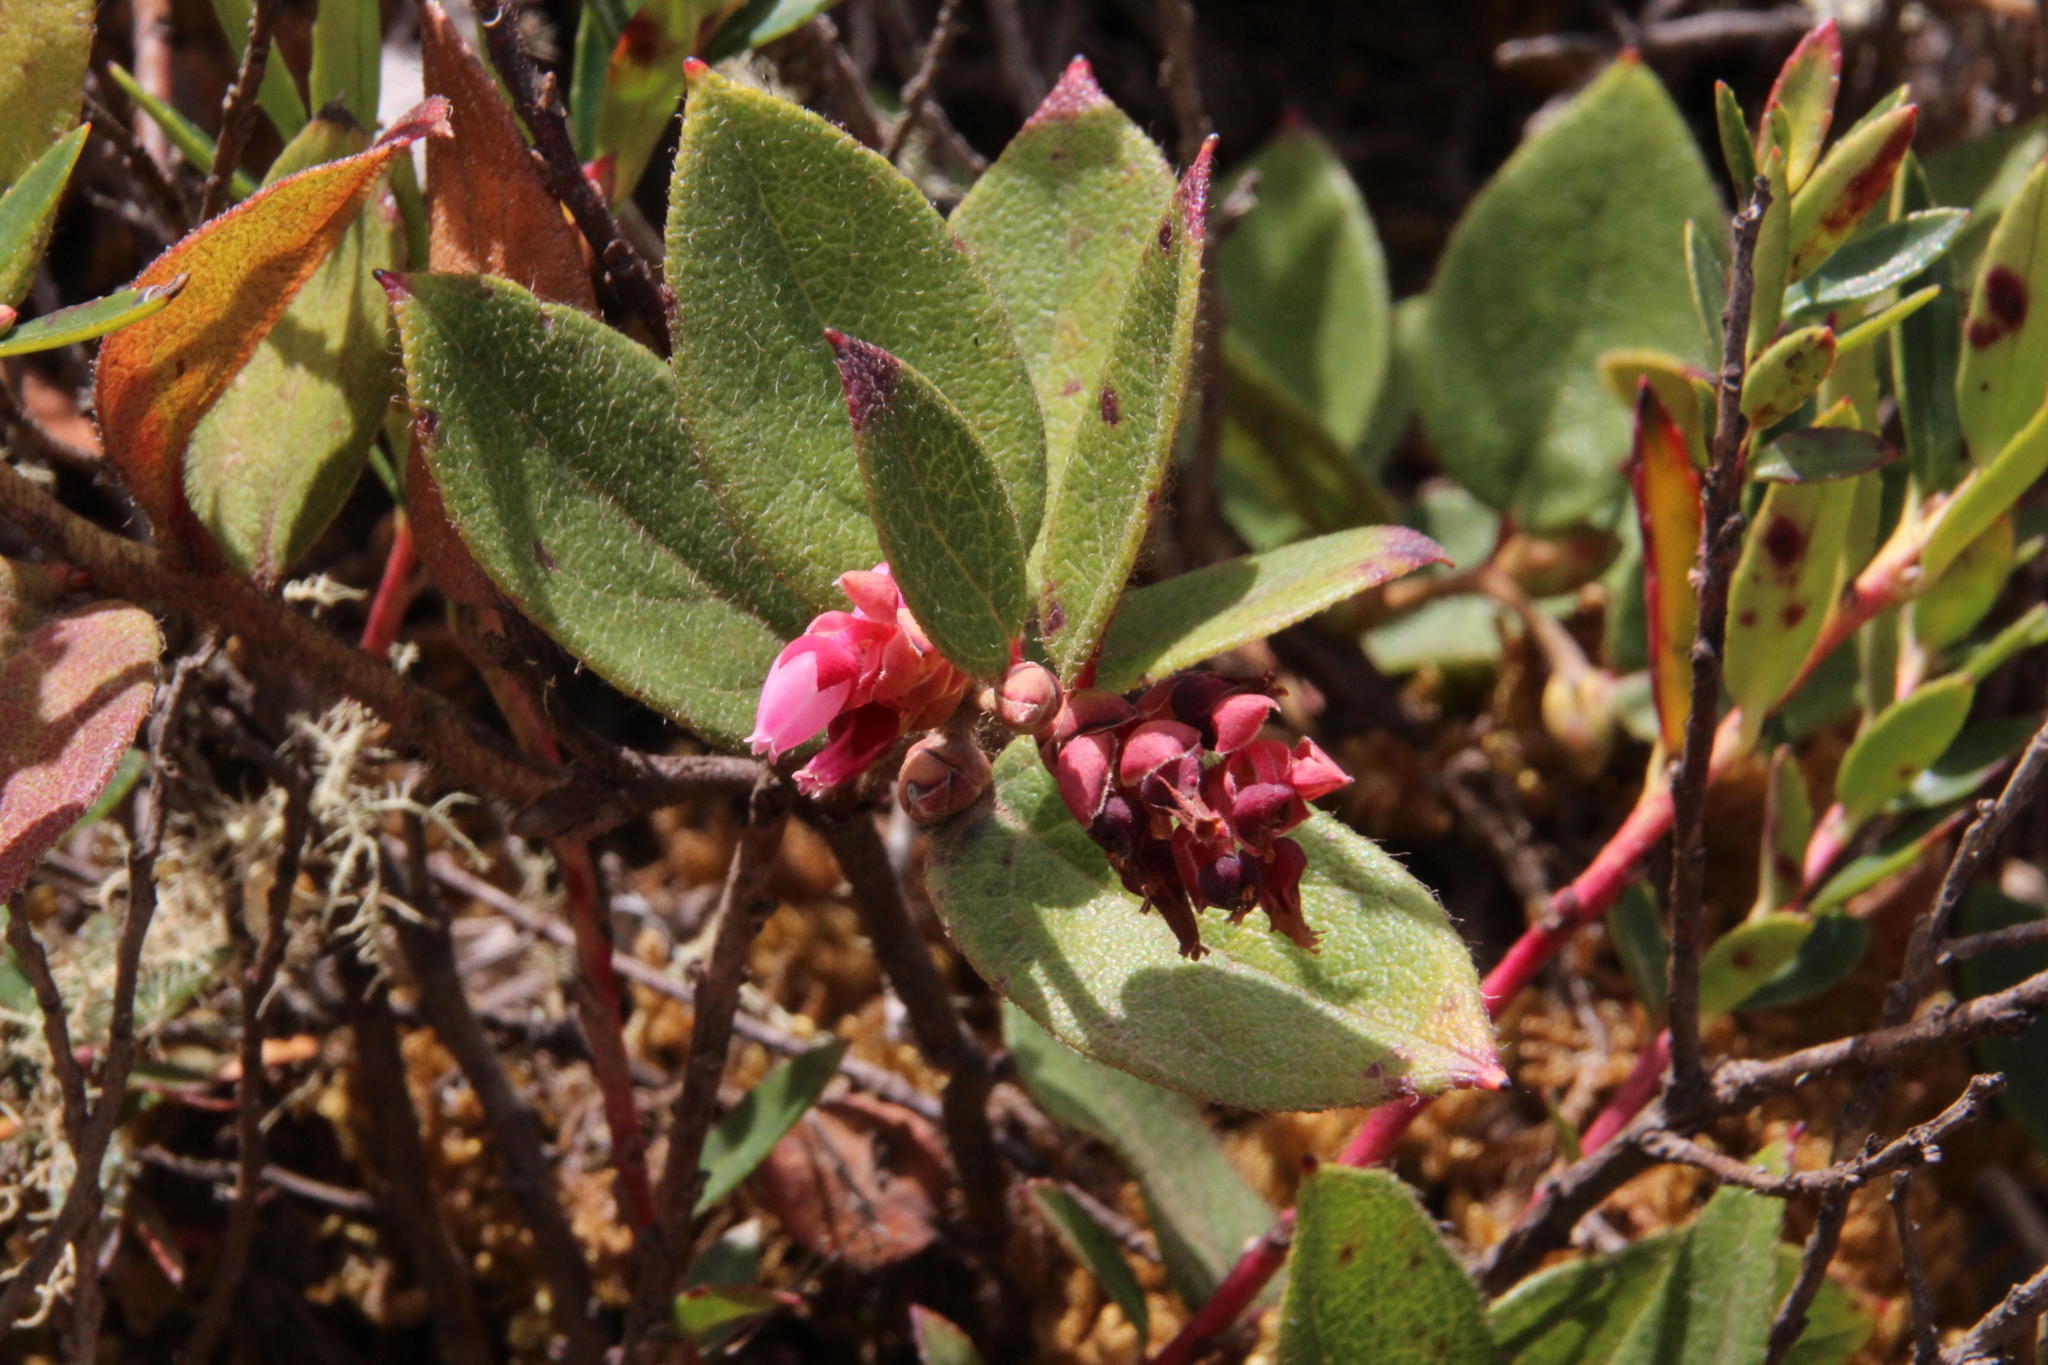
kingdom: Plantae
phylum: Tracheophyta
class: Magnoliopsida
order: Ericales
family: Ericaceae
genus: Gaultheria
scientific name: Gaultheria glomerata
